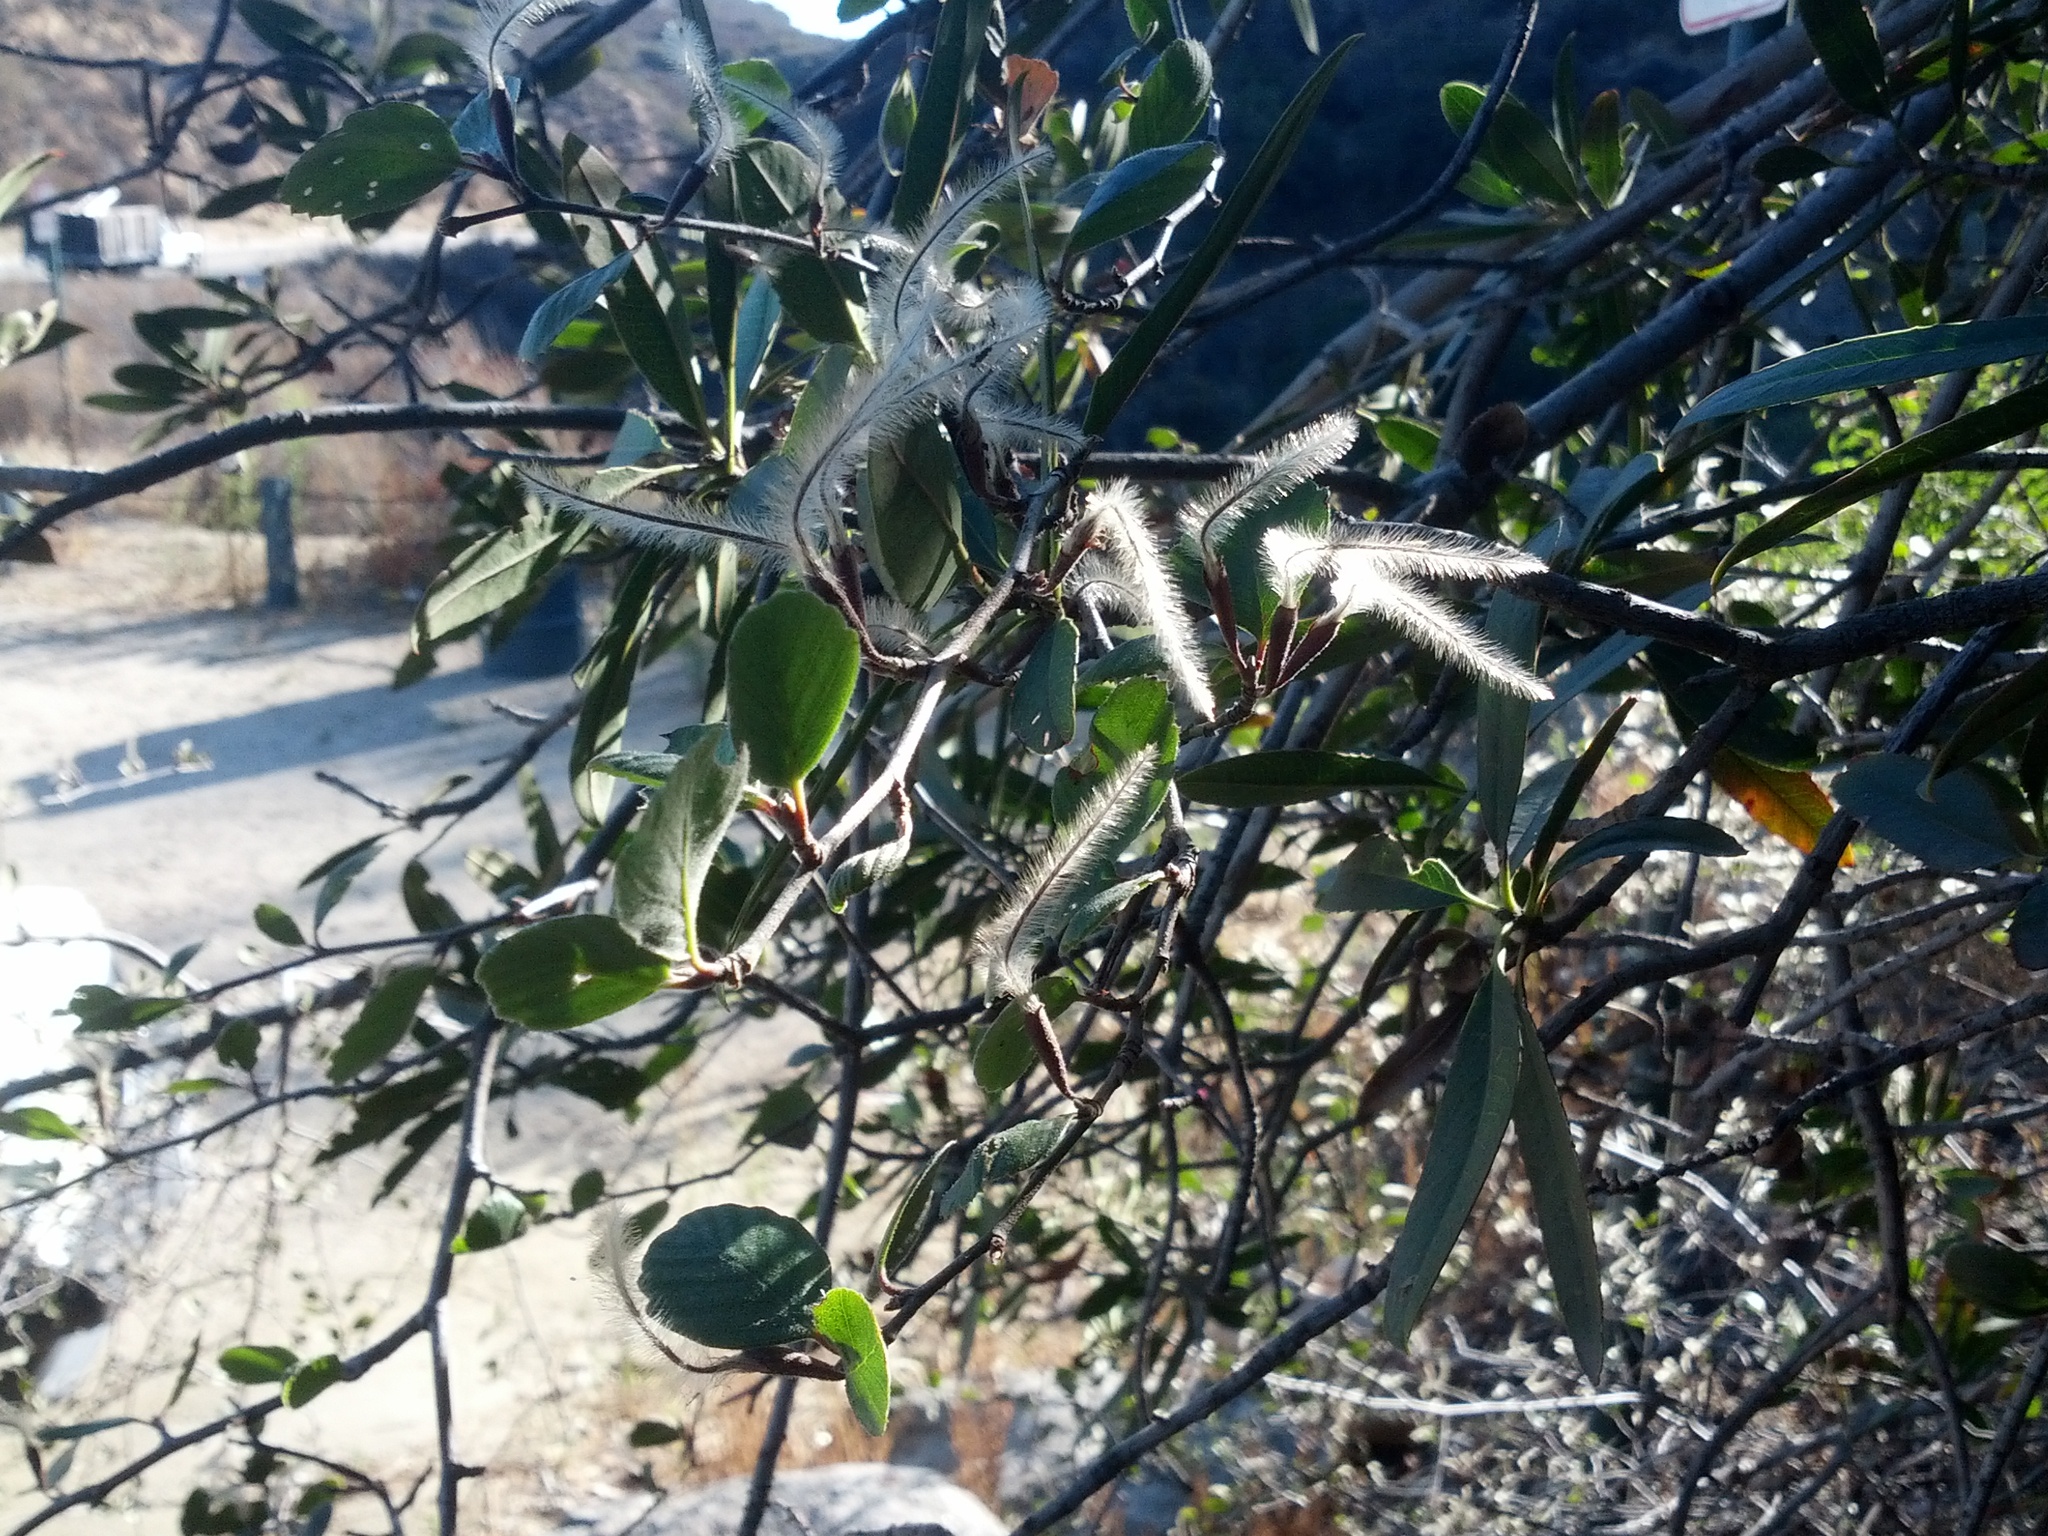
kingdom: Plantae
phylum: Tracheophyta
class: Magnoliopsida
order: Rosales
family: Rosaceae
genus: Cercocarpus
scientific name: Cercocarpus betuloides
